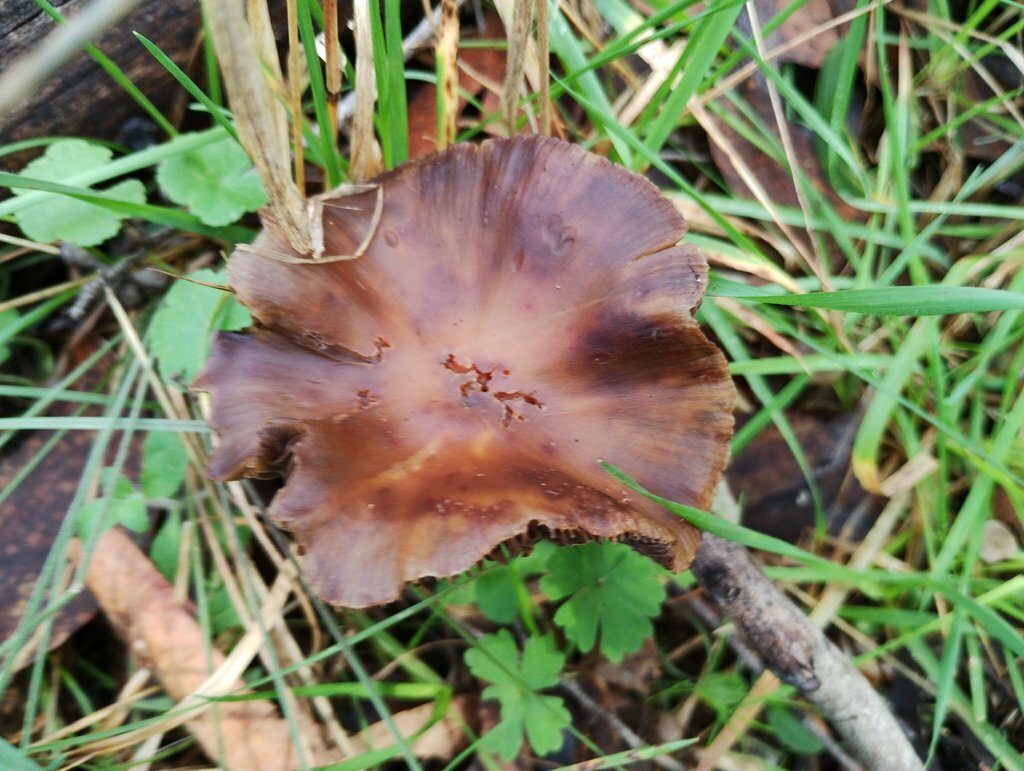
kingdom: Fungi
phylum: Basidiomycota
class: Agaricomycetes
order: Agaricales
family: Hymenogastraceae
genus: Psilocybe
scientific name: Psilocybe subaeruginosa
